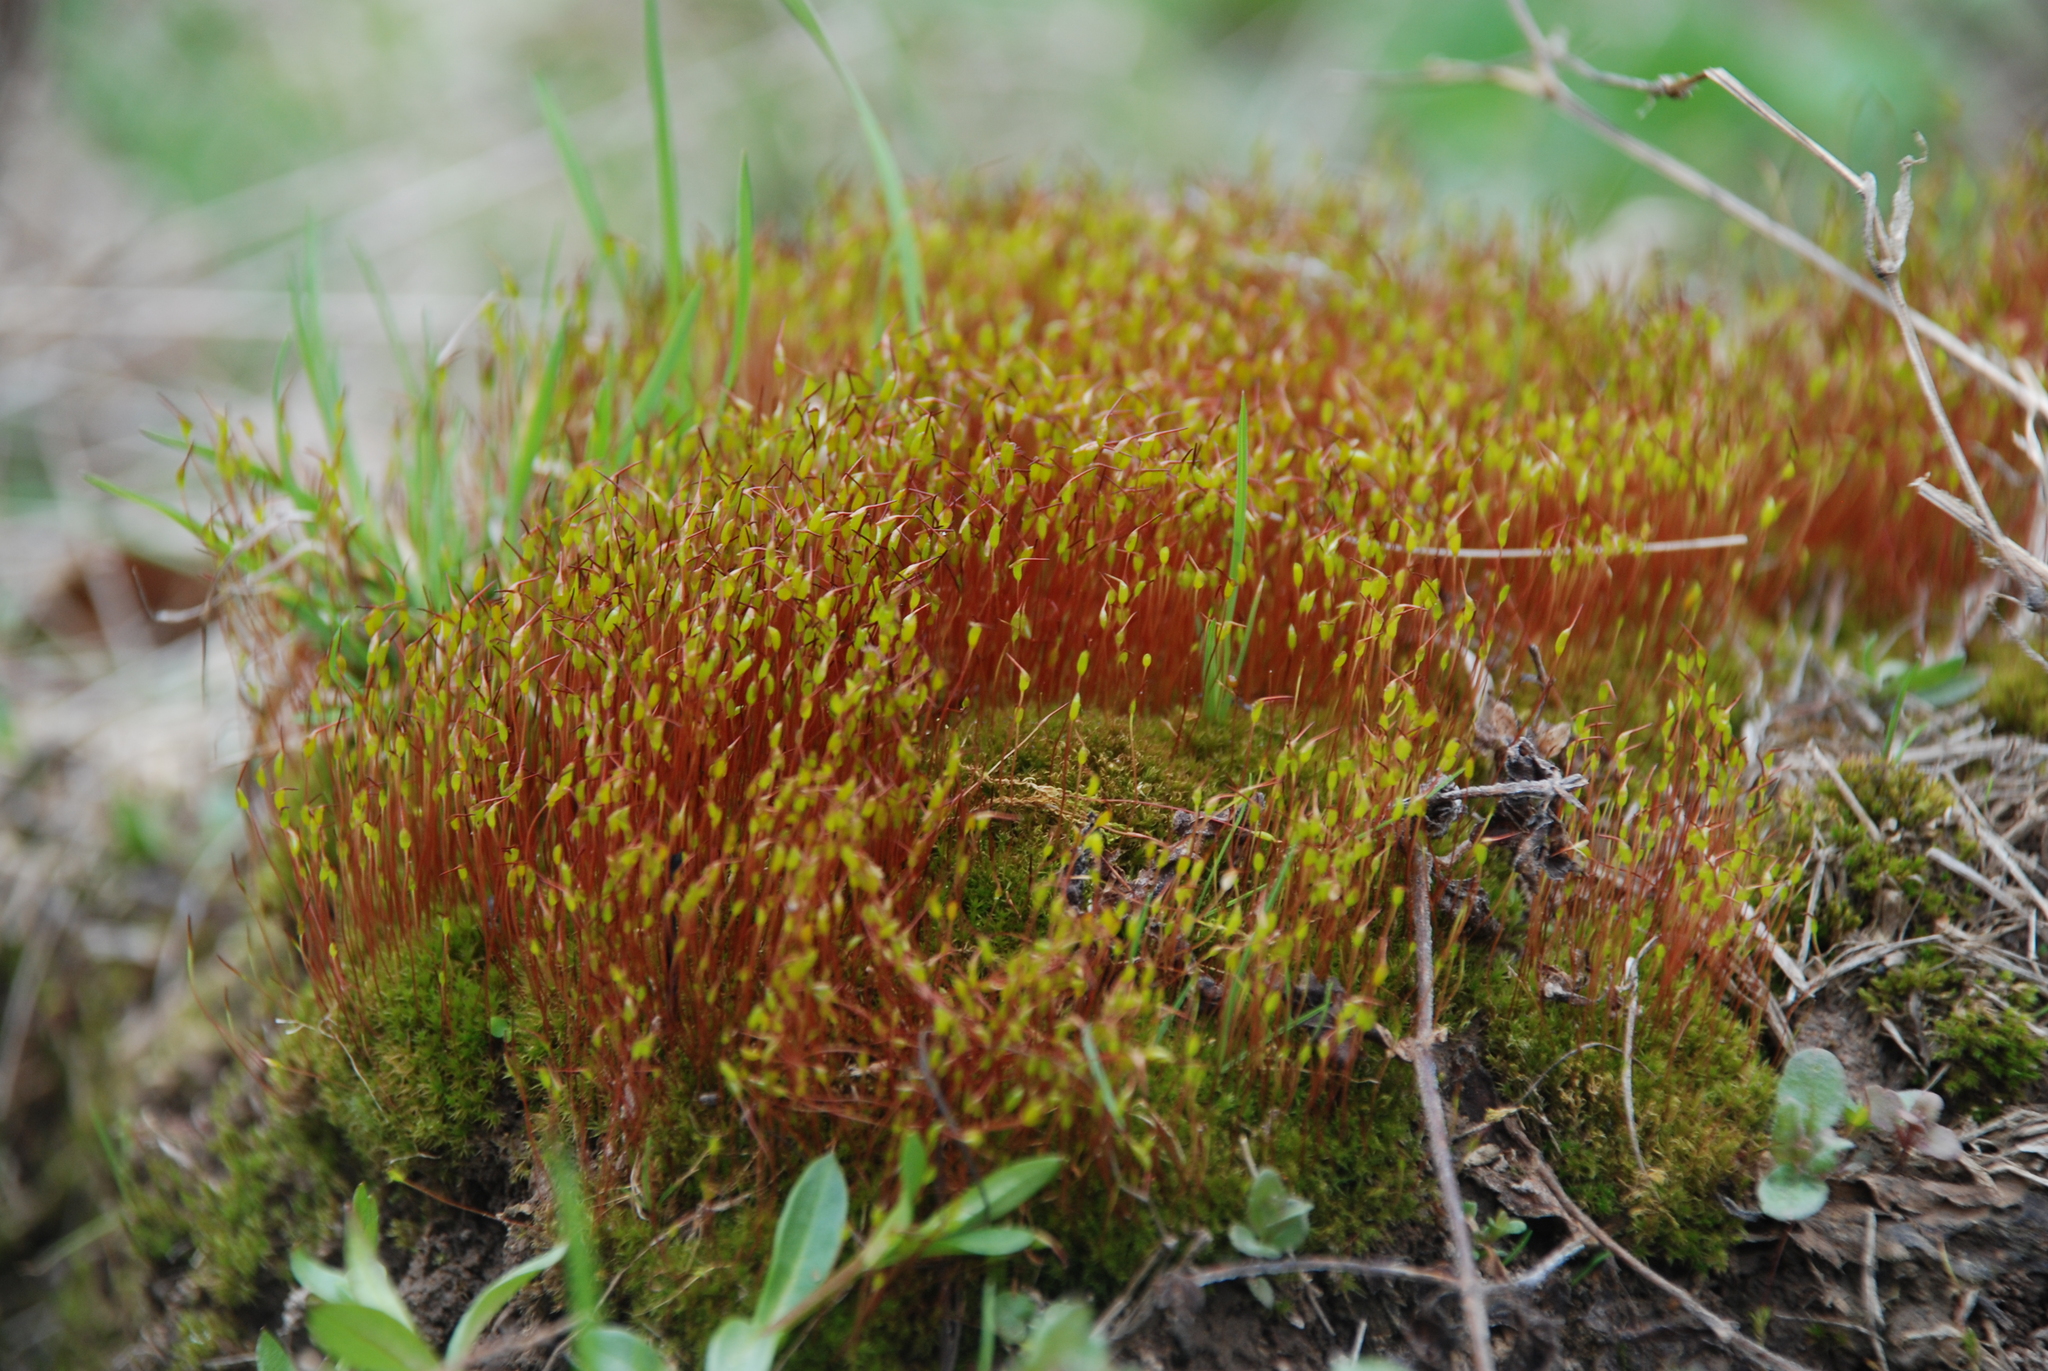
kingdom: Plantae
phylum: Bryophyta
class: Bryopsida
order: Dicranales
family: Ditrichaceae
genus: Ceratodon
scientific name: Ceratodon purpureus
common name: Redshank
